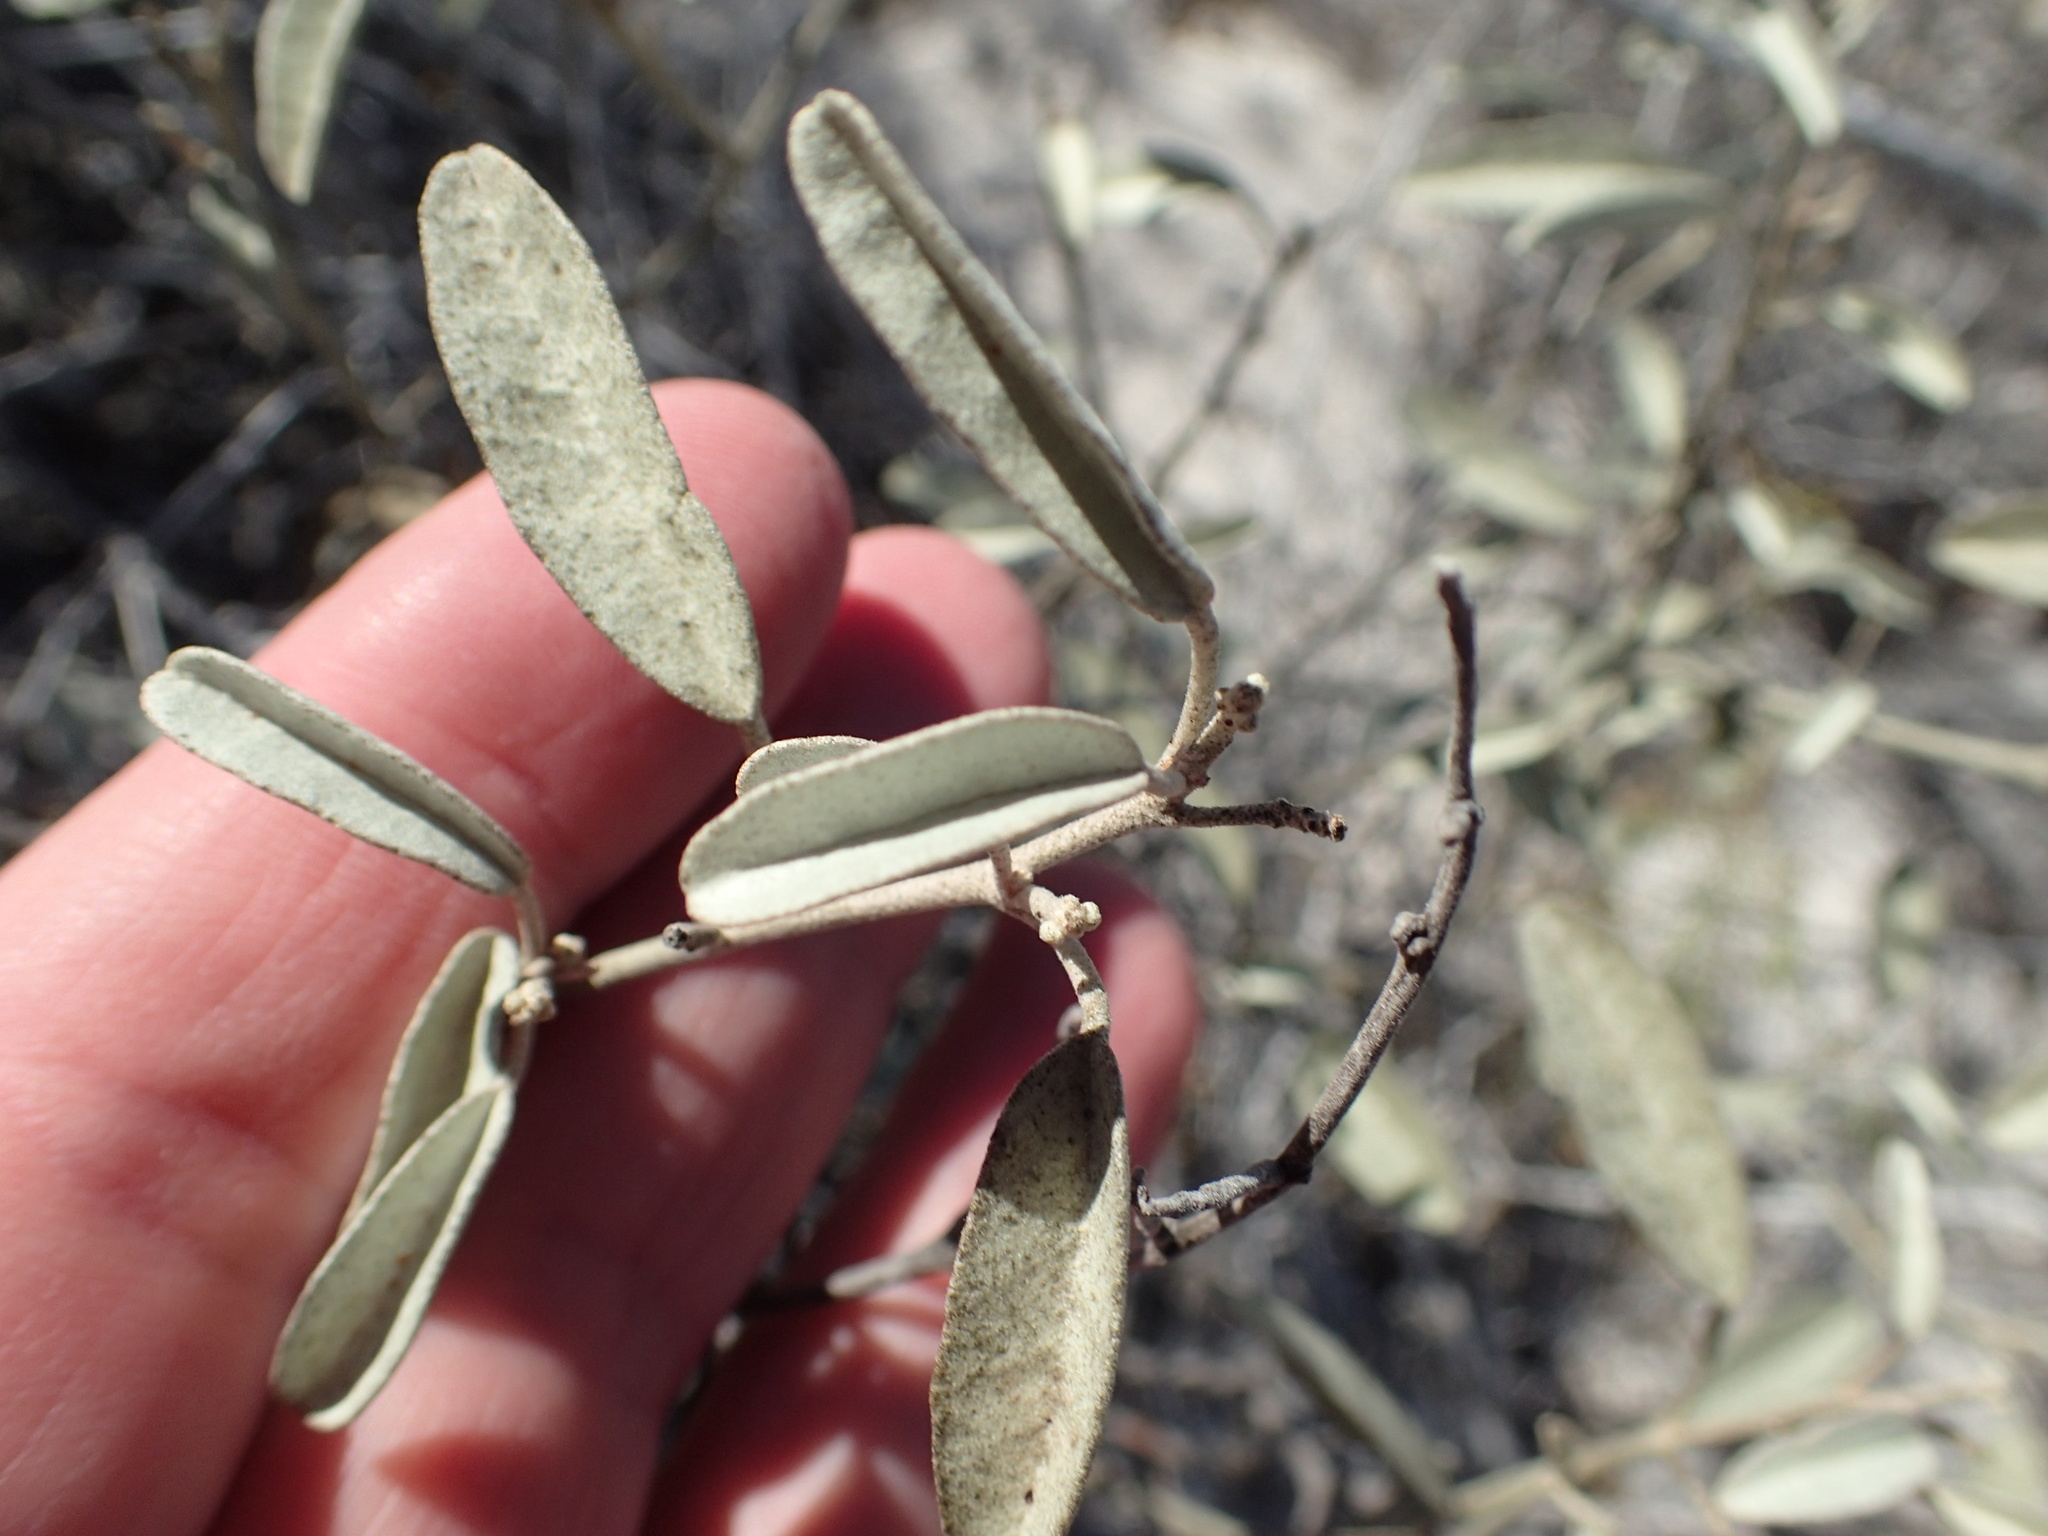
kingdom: Plantae
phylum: Tracheophyta
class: Magnoliopsida
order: Malpighiales
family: Euphorbiaceae
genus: Croton
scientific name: Croton californicus
